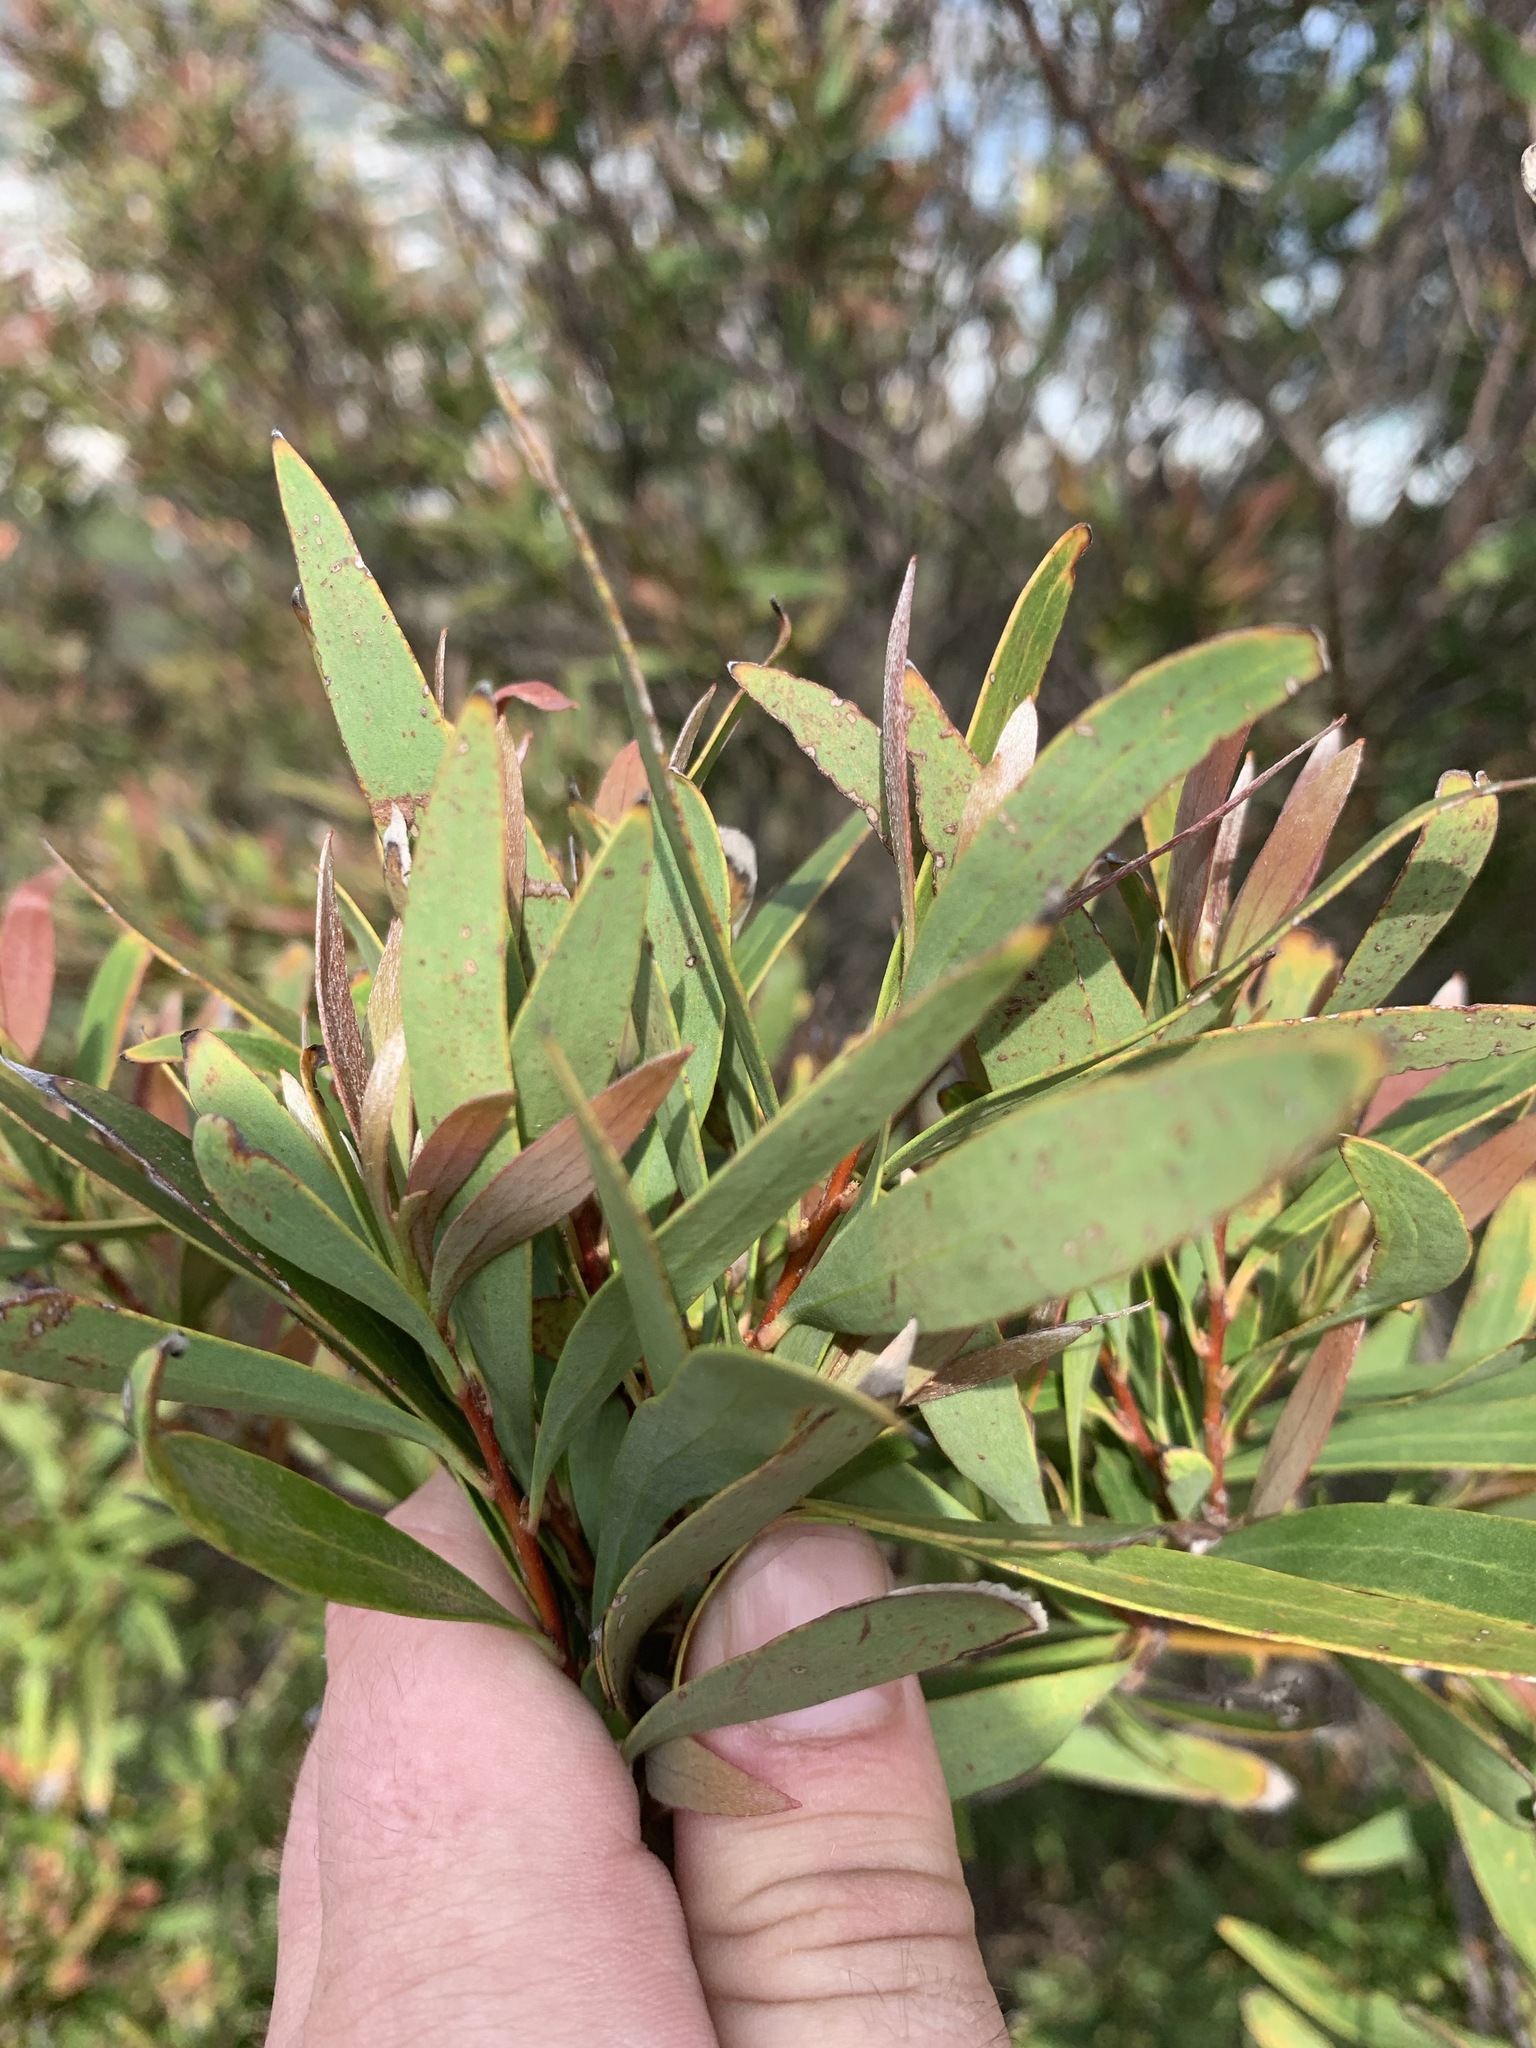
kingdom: Plantae
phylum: Tracheophyta
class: Magnoliopsida
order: Proteales
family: Proteaceae
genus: Hakea
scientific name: Hakea salicifolia
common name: Willow hakea
